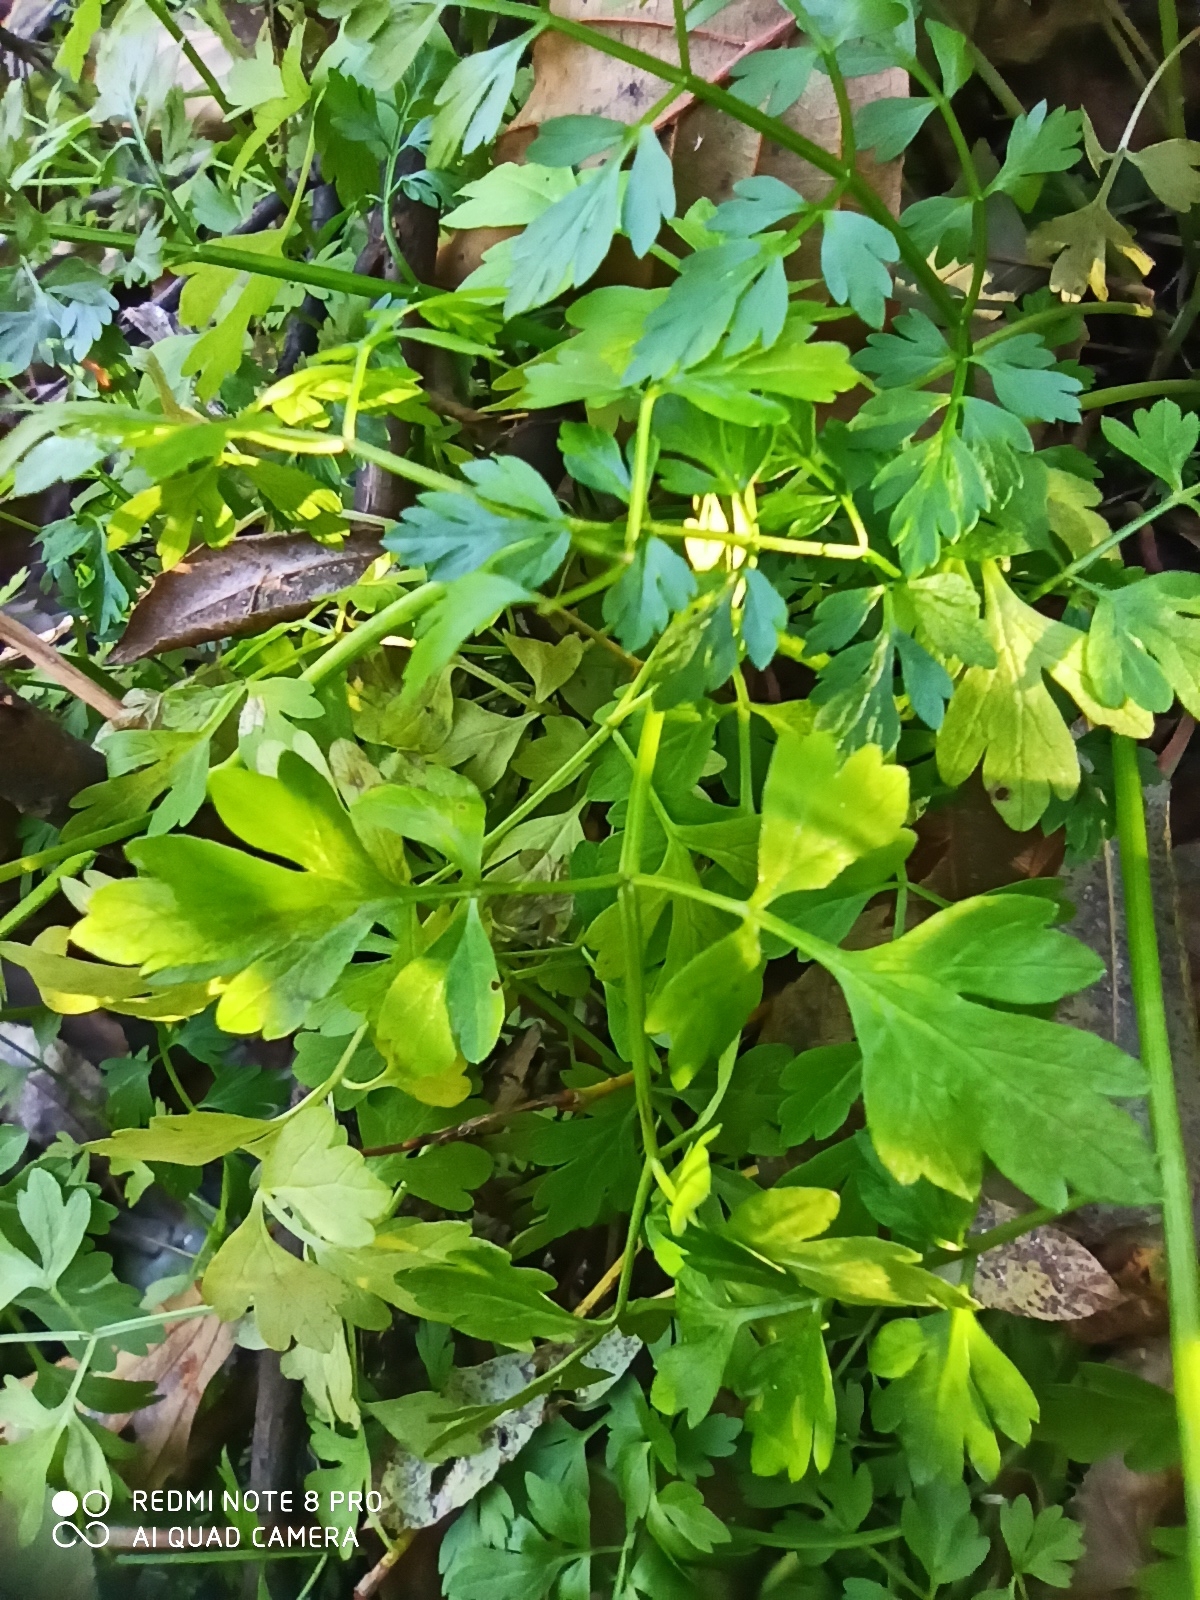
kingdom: Plantae
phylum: Tracheophyta
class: Magnoliopsida
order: Apiales
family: Apiaceae
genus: Oenanthe
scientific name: Oenanthe aquatica
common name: Fine-leaved water-dropwort
